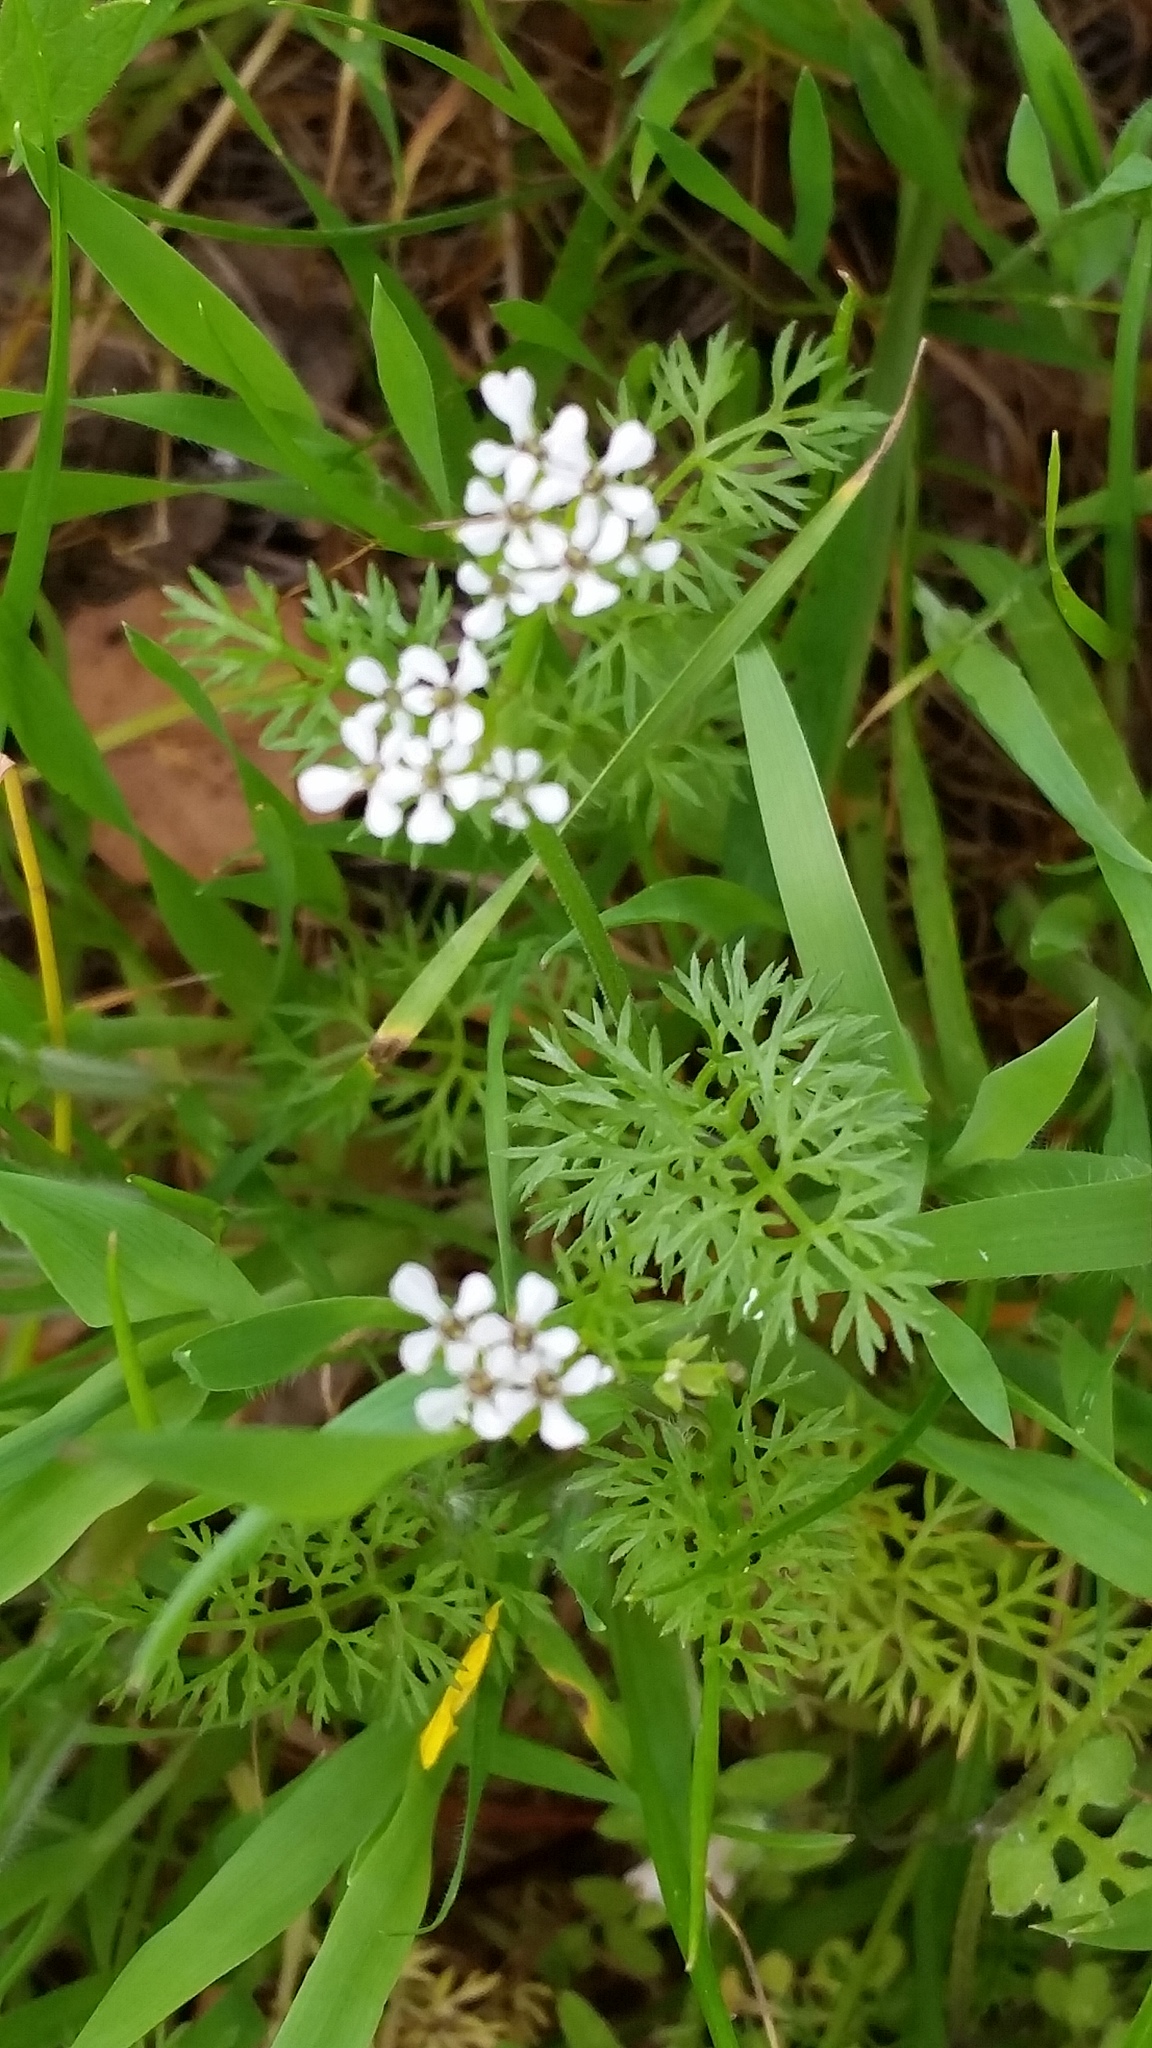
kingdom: Plantae
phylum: Tracheophyta
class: Magnoliopsida
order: Apiales
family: Apiaceae
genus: Scandix
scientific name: Scandix pecten-veneris
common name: Shepherd's-needle
